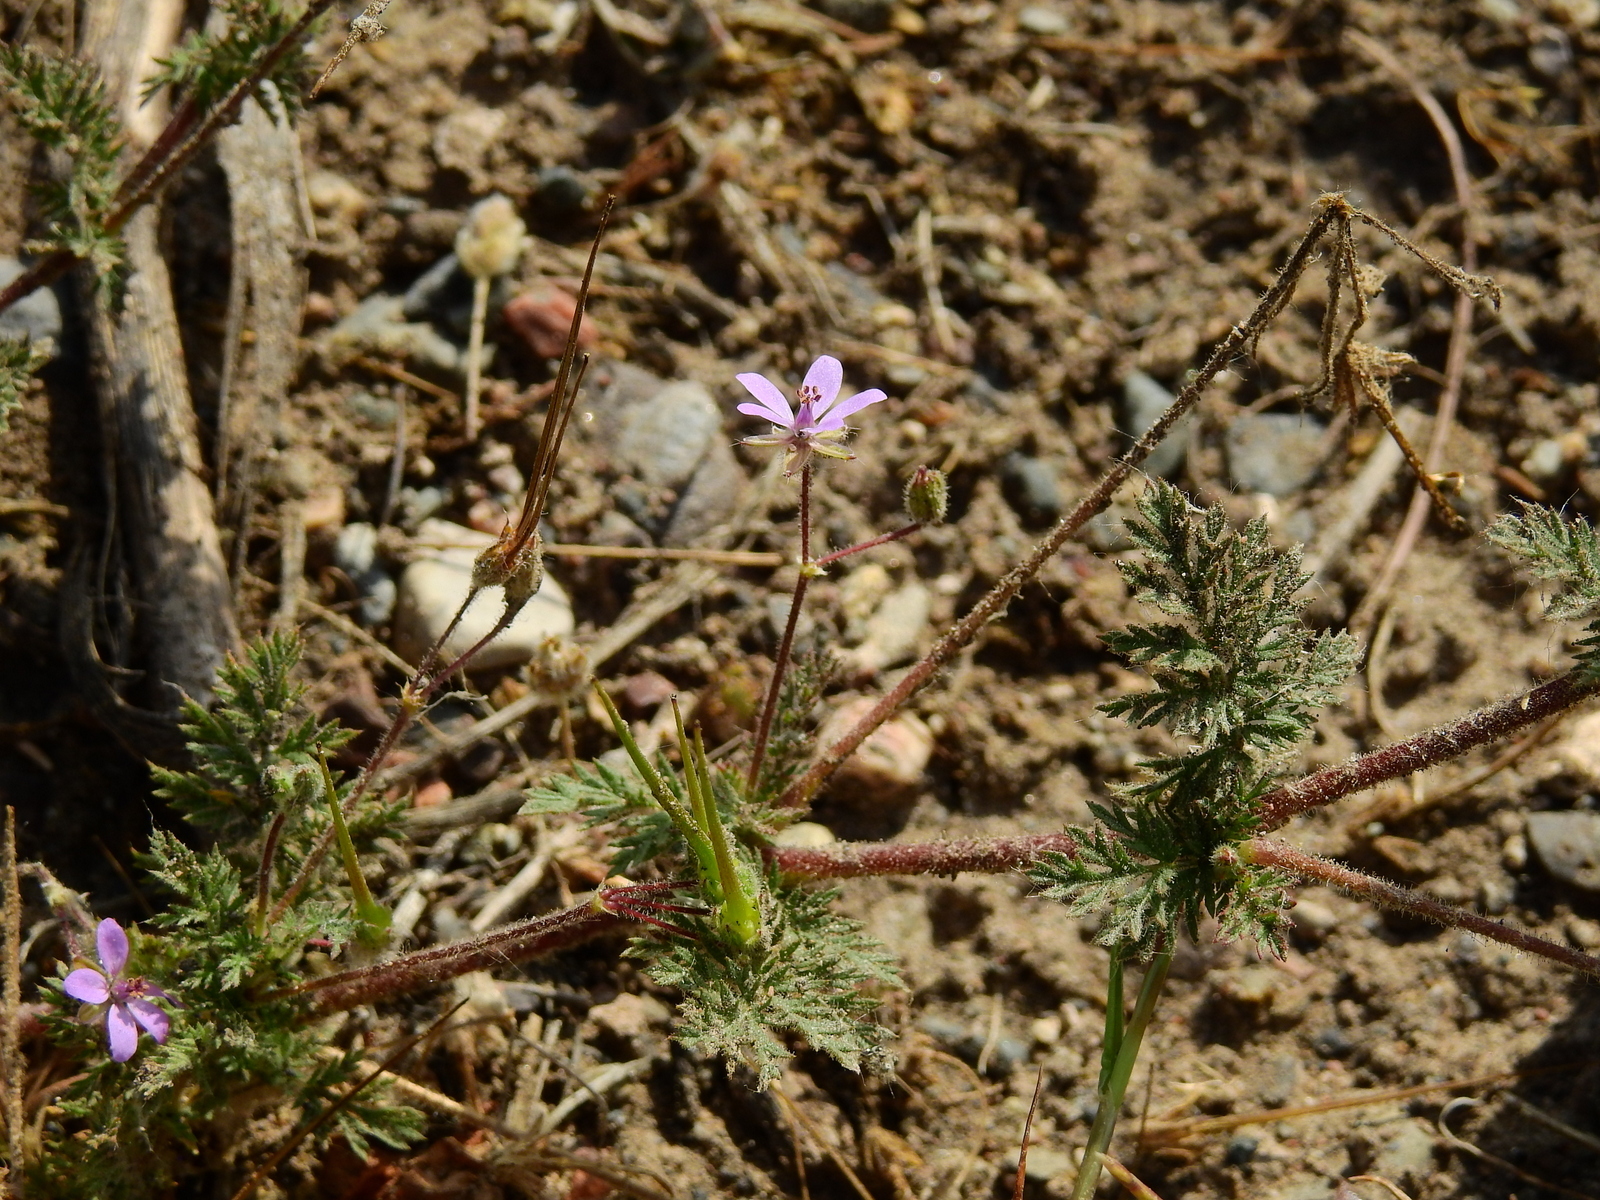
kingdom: Plantae
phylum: Tracheophyta
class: Magnoliopsida
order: Geraniales
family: Geraniaceae
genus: Erodium
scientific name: Erodium cicutarium
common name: Common stork's-bill
